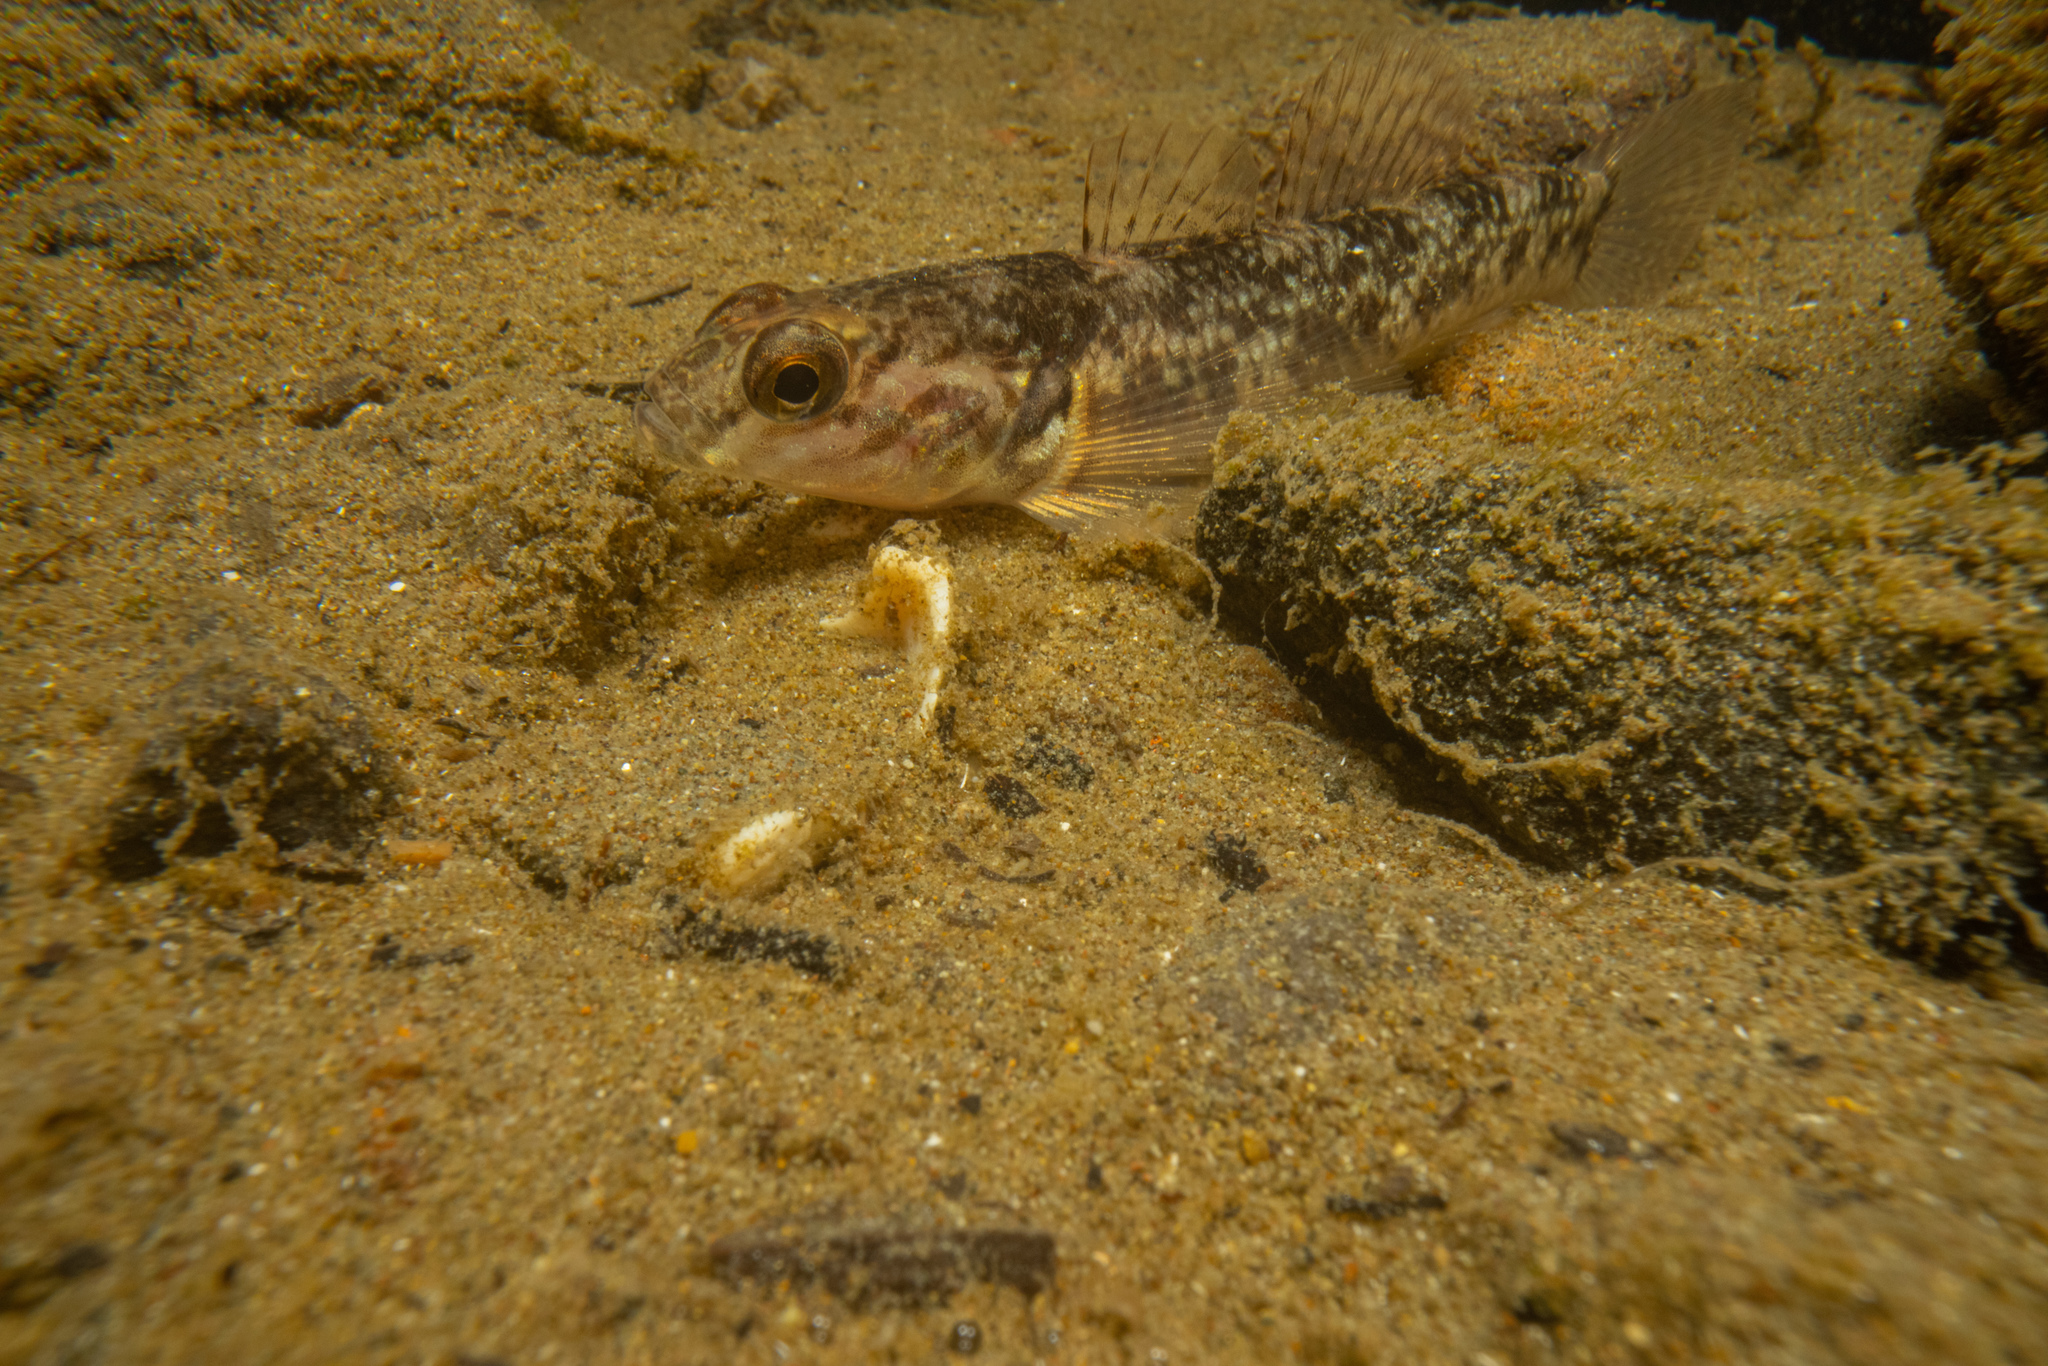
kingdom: Animalia
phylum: Chordata
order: Perciformes
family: Eleotridae
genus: Gobiomorphus
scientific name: Gobiomorphus huttoni
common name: Redfin bully
